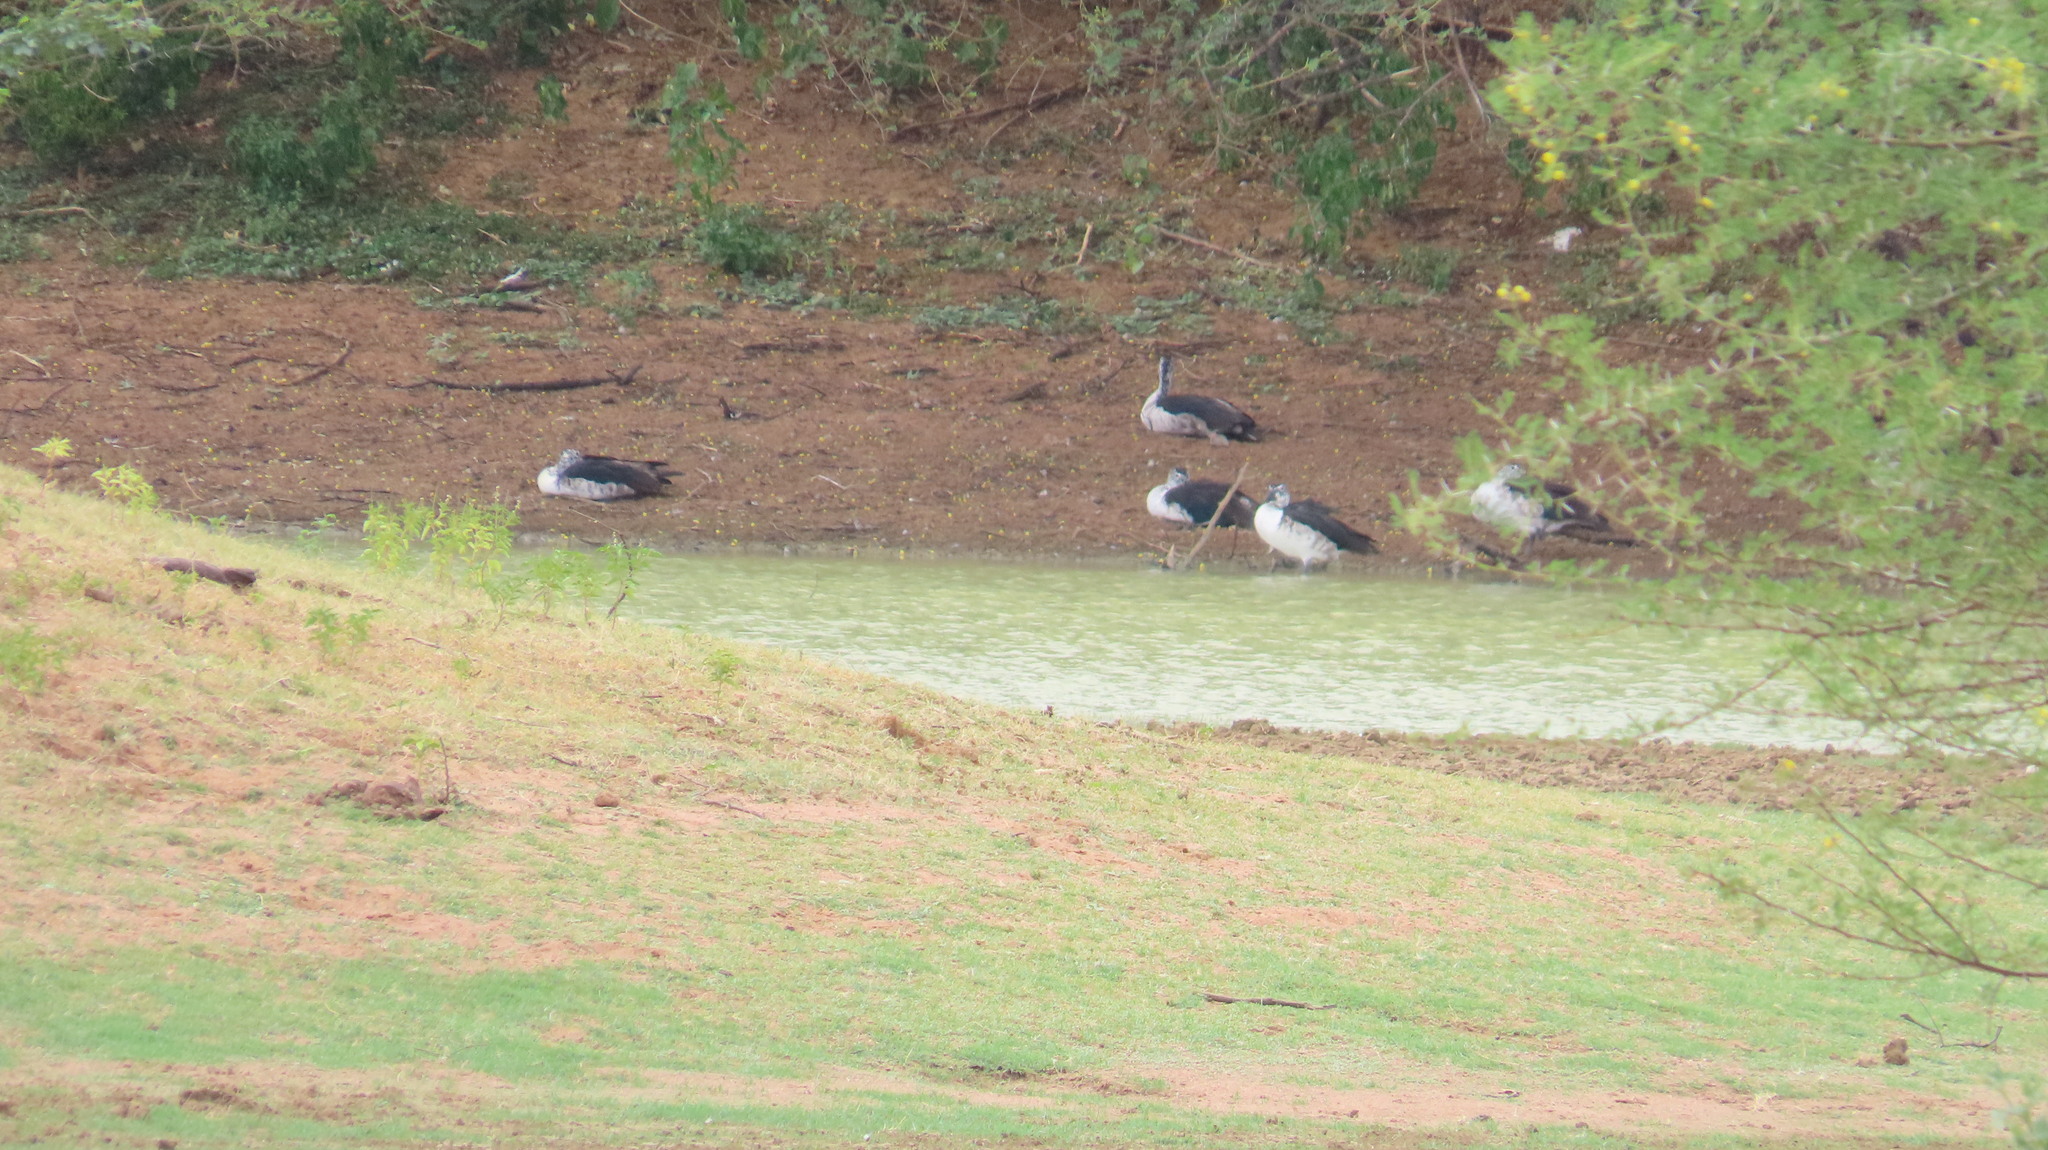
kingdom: Animalia
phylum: Chordata
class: Aves
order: Anseriformes
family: Anatidae
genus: Sarkidiornis
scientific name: Sarkidiornis melanotos
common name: Comb duck
